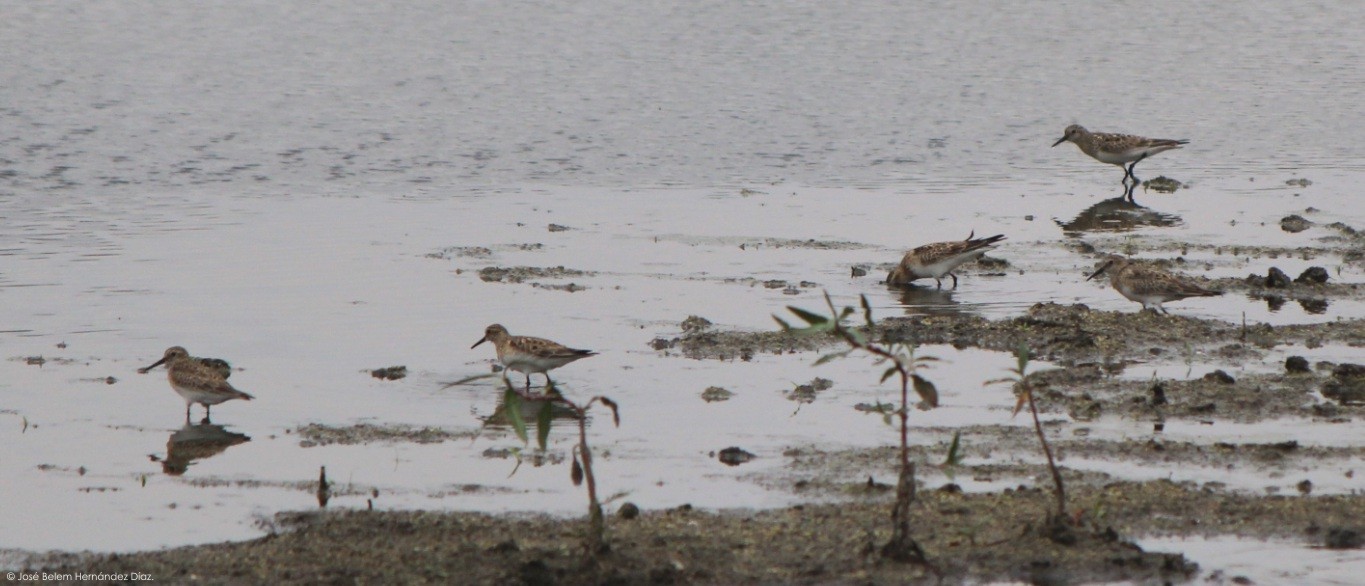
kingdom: Animalia
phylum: Chordata
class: Aves
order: Charadriiformes
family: Scolopacidae
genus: Calidris
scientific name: Calidris bairdii
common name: Baird's sandpiper
